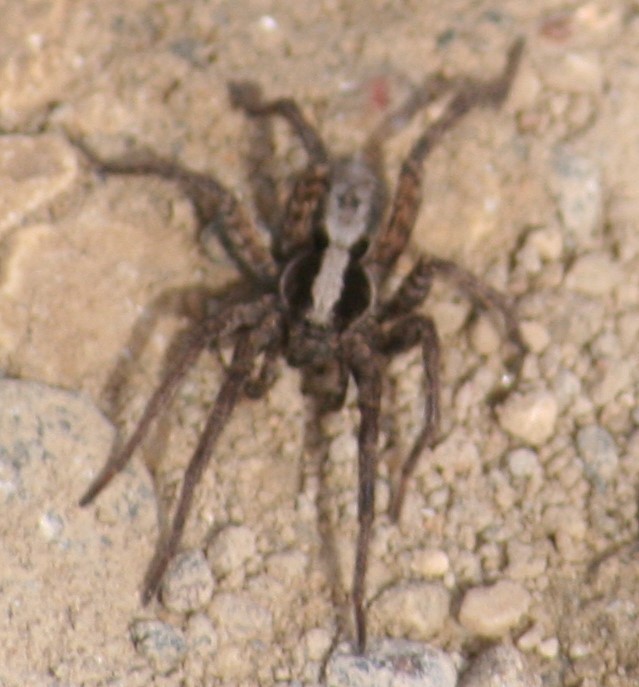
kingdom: Animalia
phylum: Arthropoda
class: Arachnida
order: Araneae
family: Lycosidae
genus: Hogna
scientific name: Hogna frondicola
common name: Forest wolf spider
